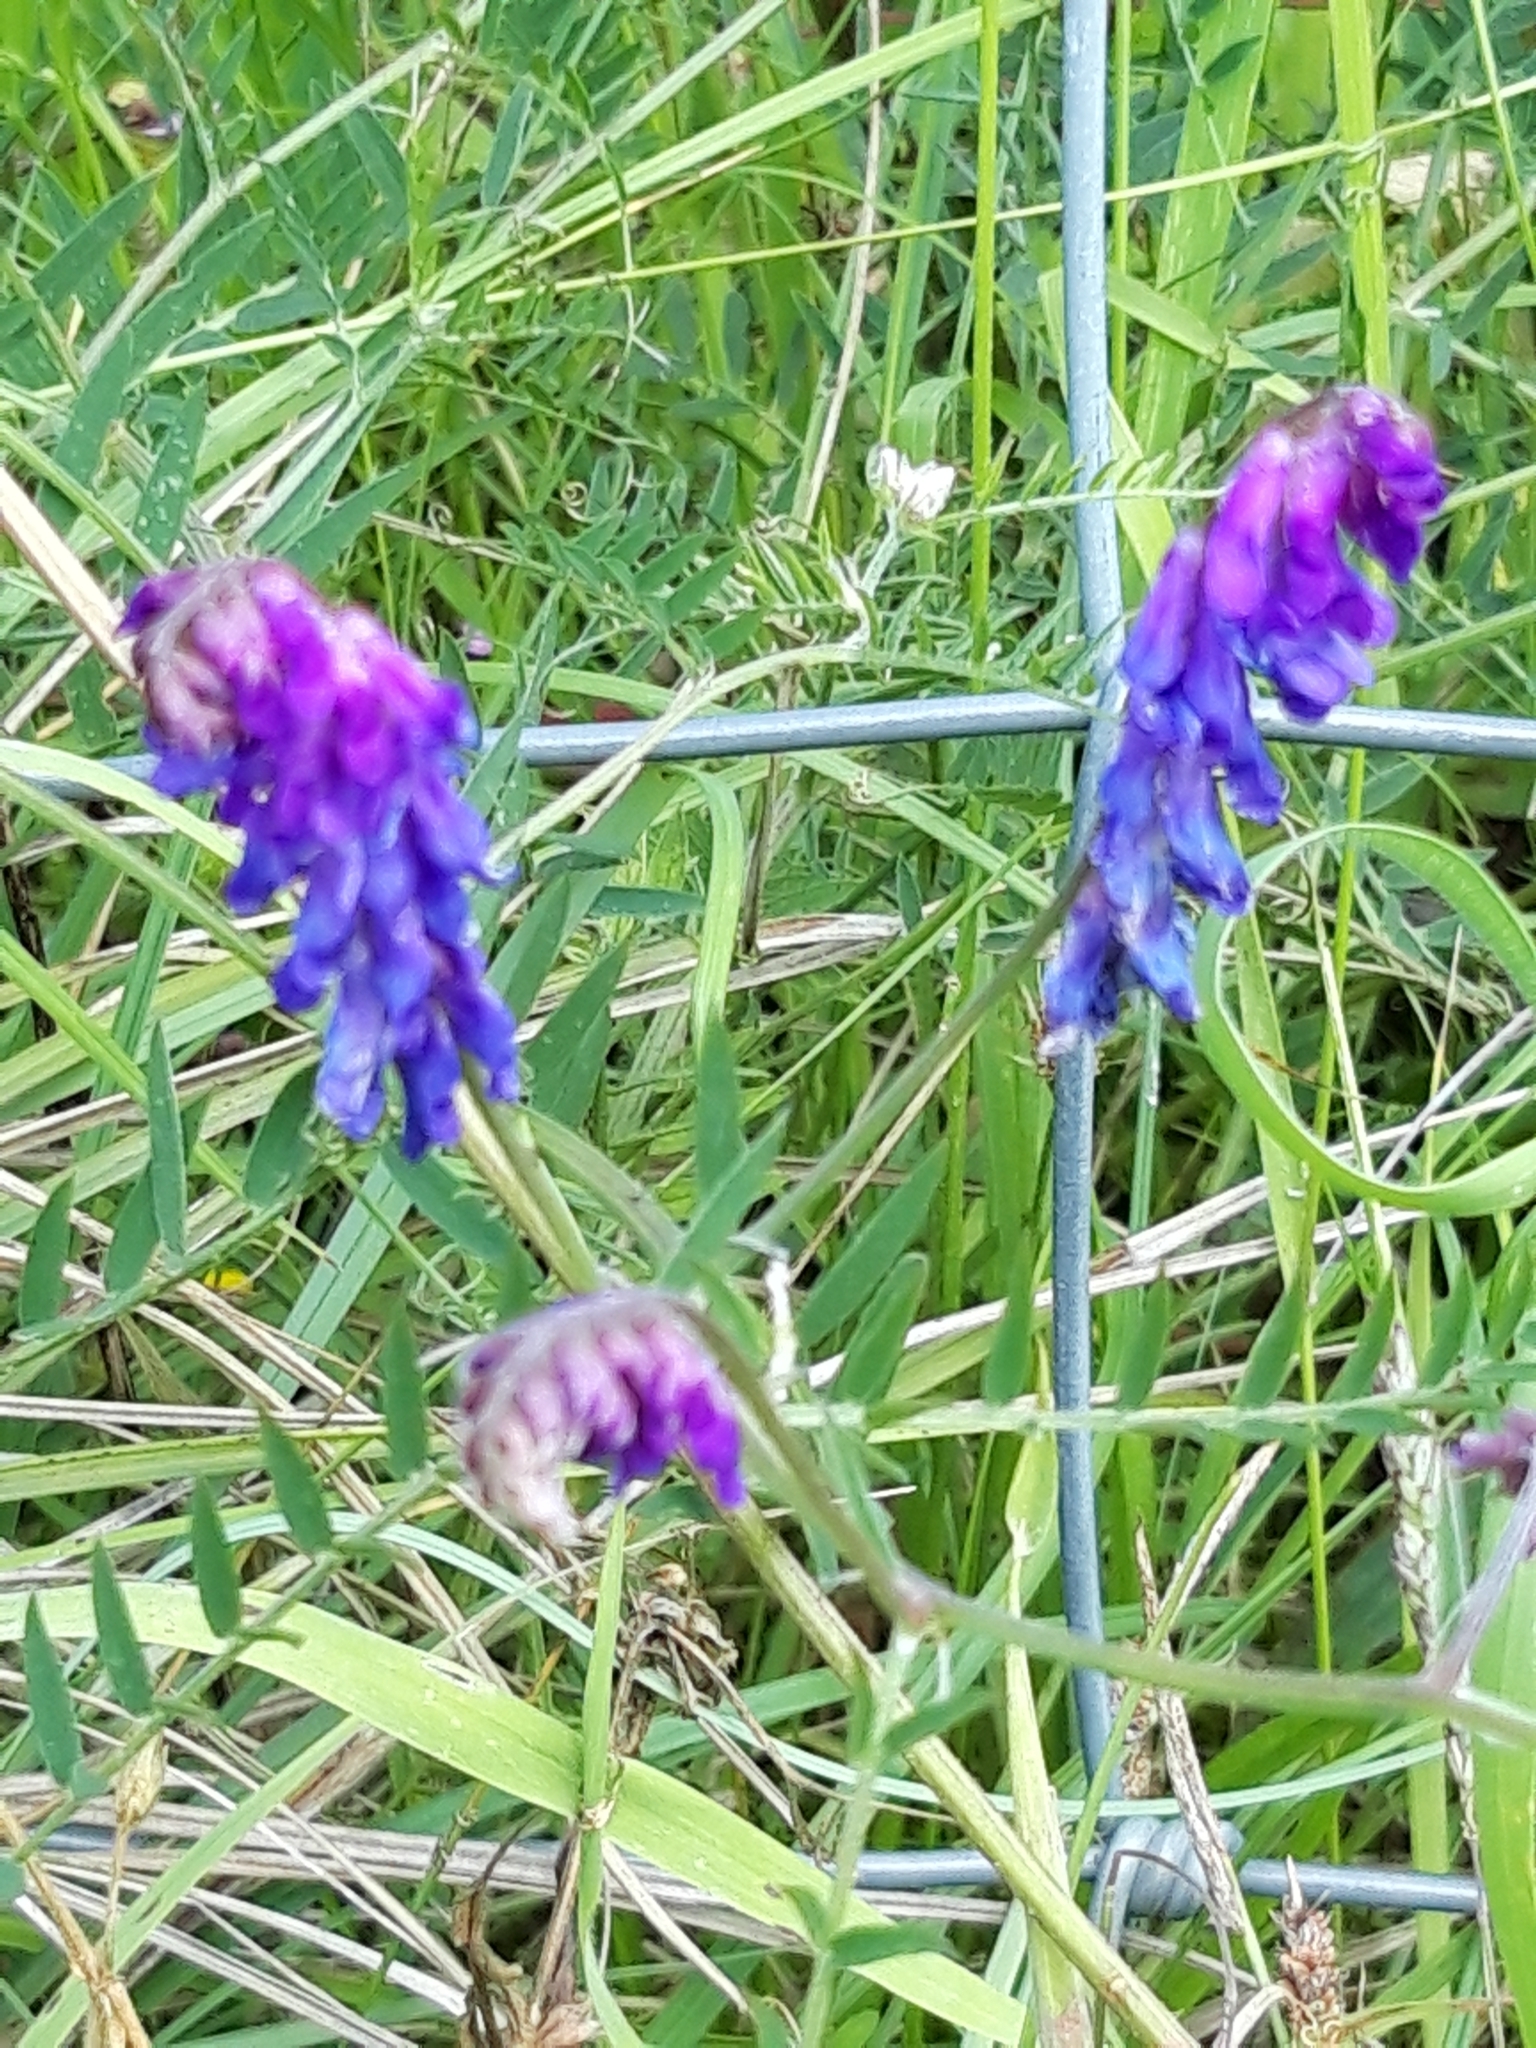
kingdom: Plantae
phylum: Tracheophyta
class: Magnoliopsida
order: Fabales
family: Fabaceae
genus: Vicia
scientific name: Vicia cracca
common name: Bird vetch
